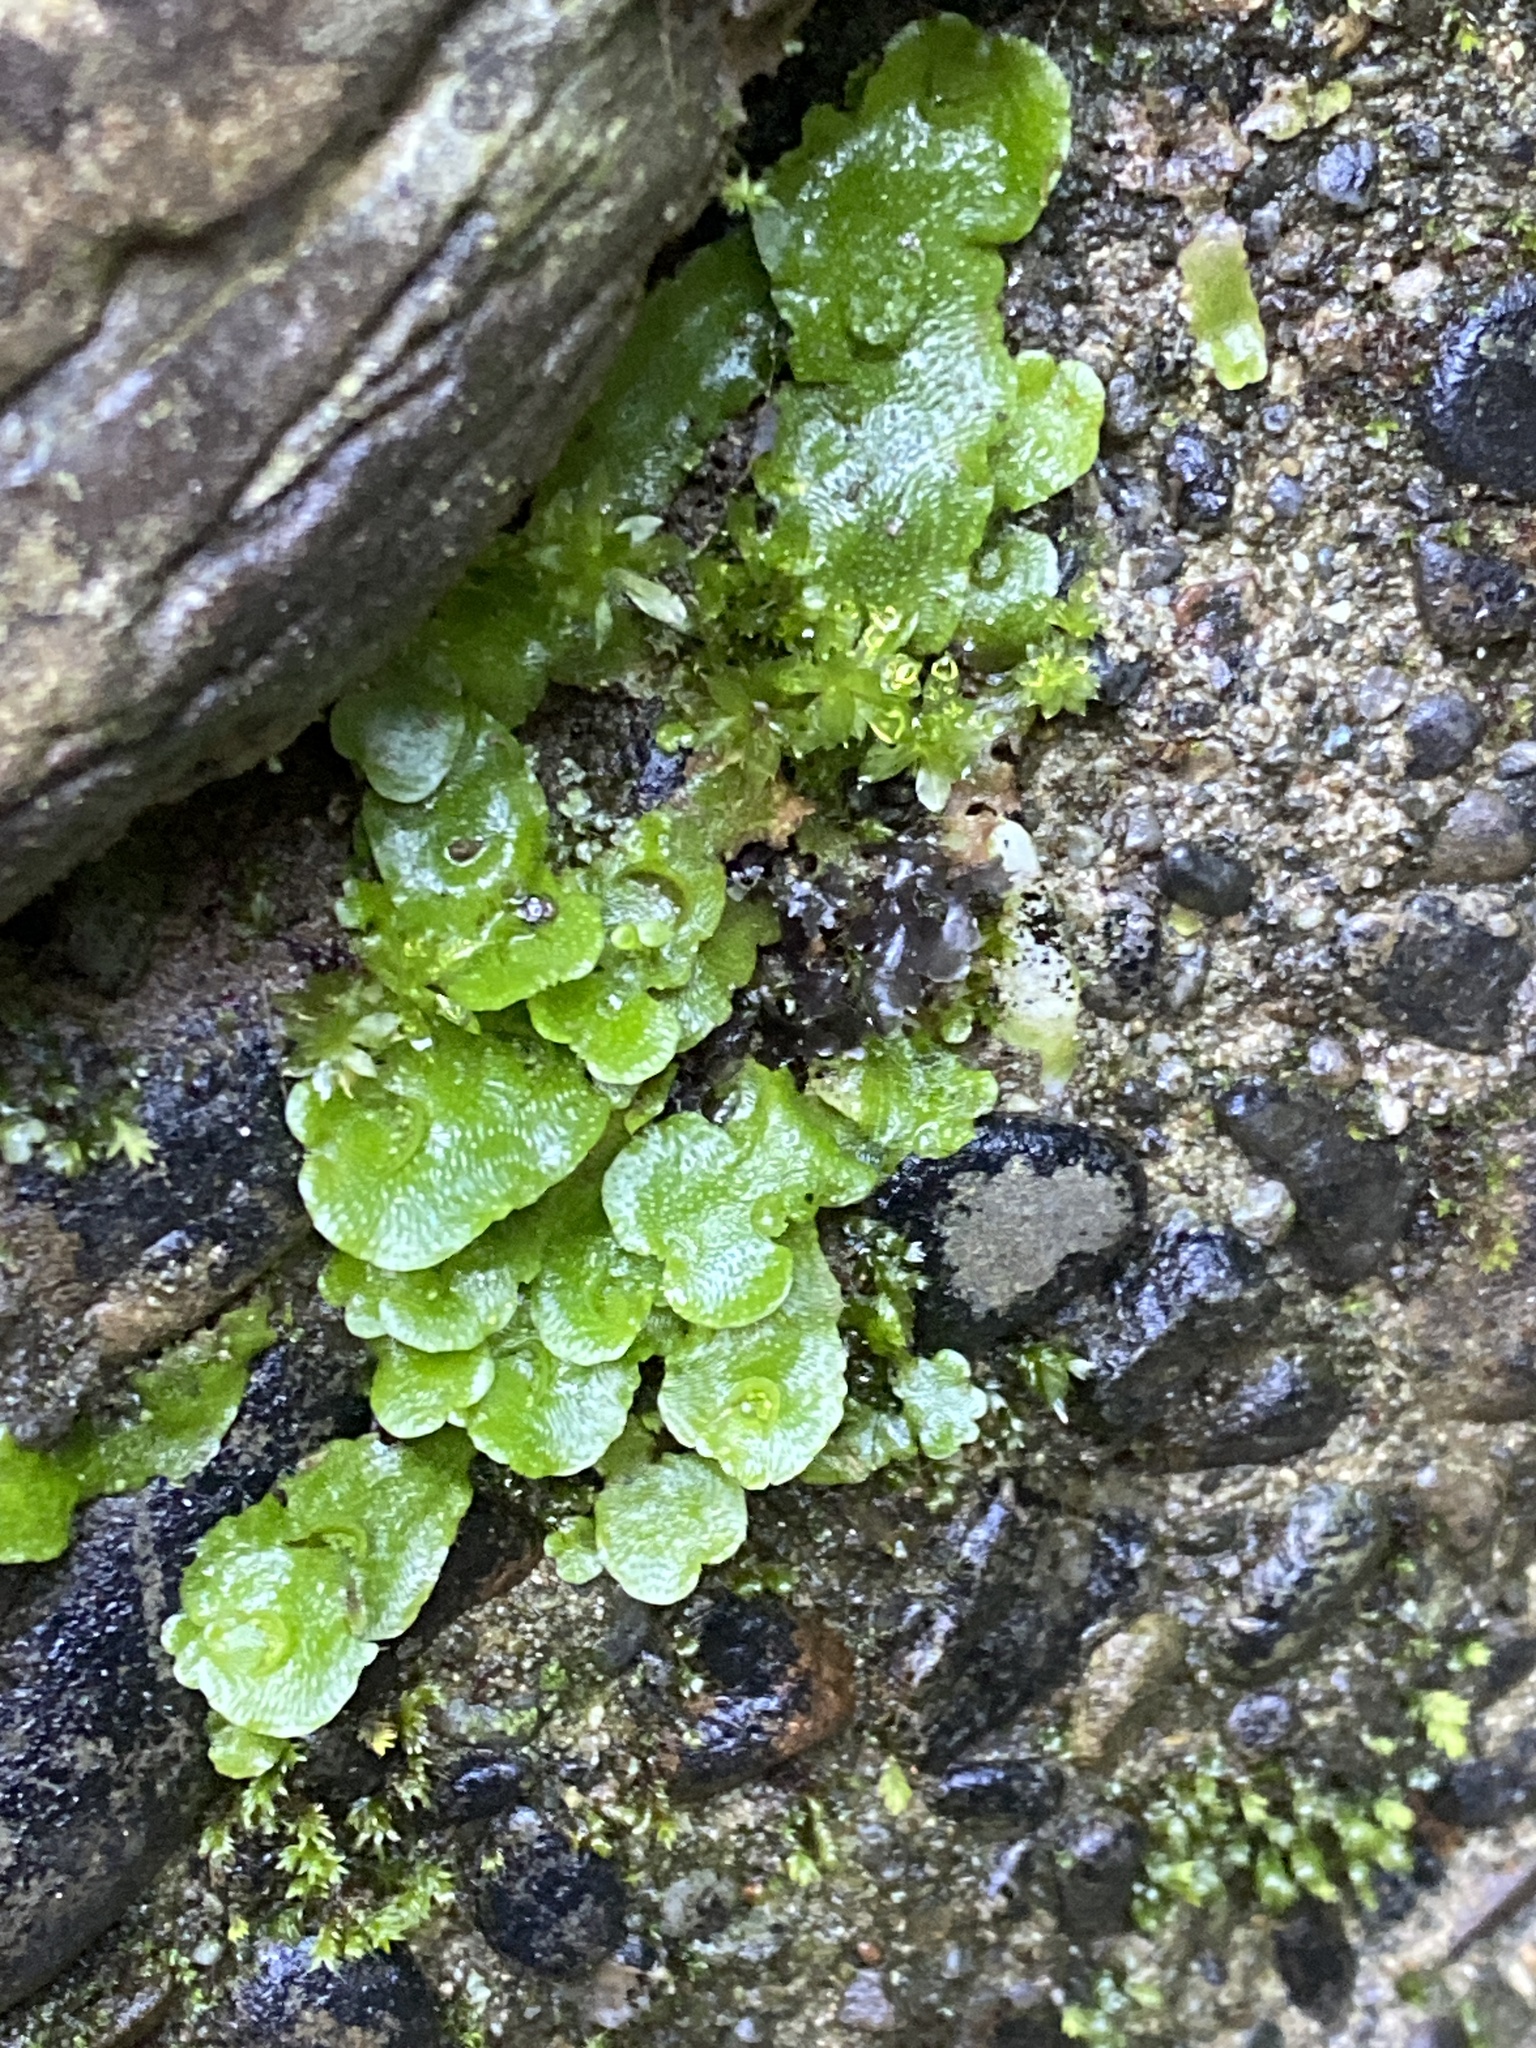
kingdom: Plantae
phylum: Marchantiophyta
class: Marchantiopsida
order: Lunulariales
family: Lunulariaceae
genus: Lunularia
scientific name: Lunularia cruciata
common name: Crescent-cup liverwort
